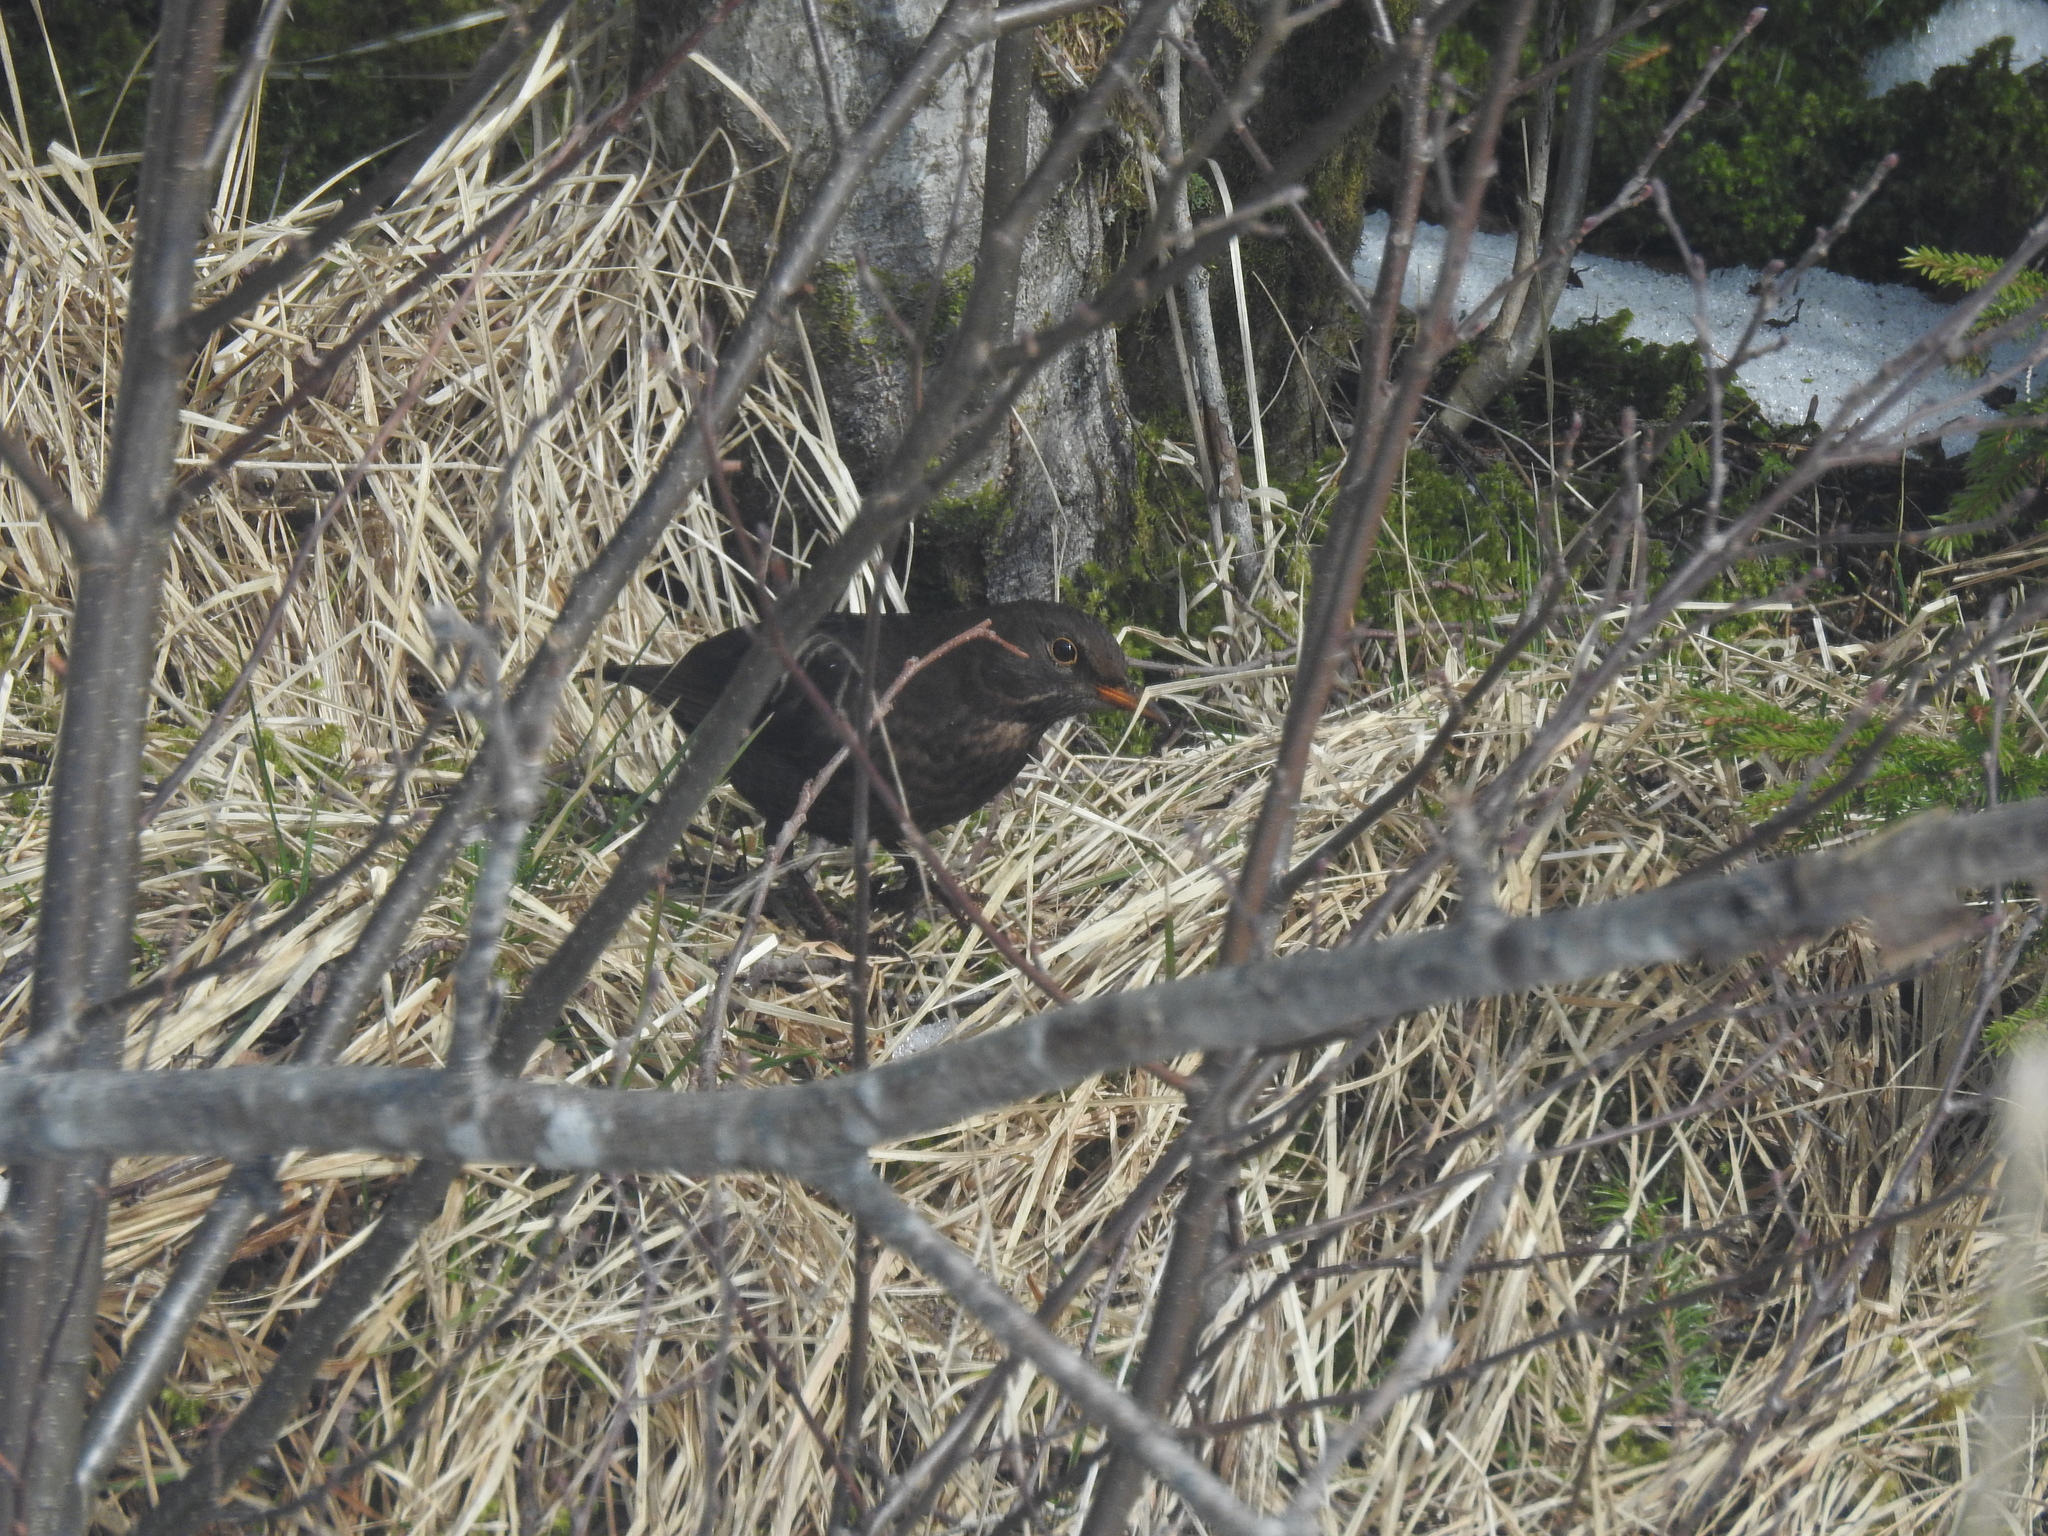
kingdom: Animalia
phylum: Chordata
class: Aves
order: Passeriformes
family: Turdidae
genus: Turdus
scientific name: Turdus merula
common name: Common blackbird
